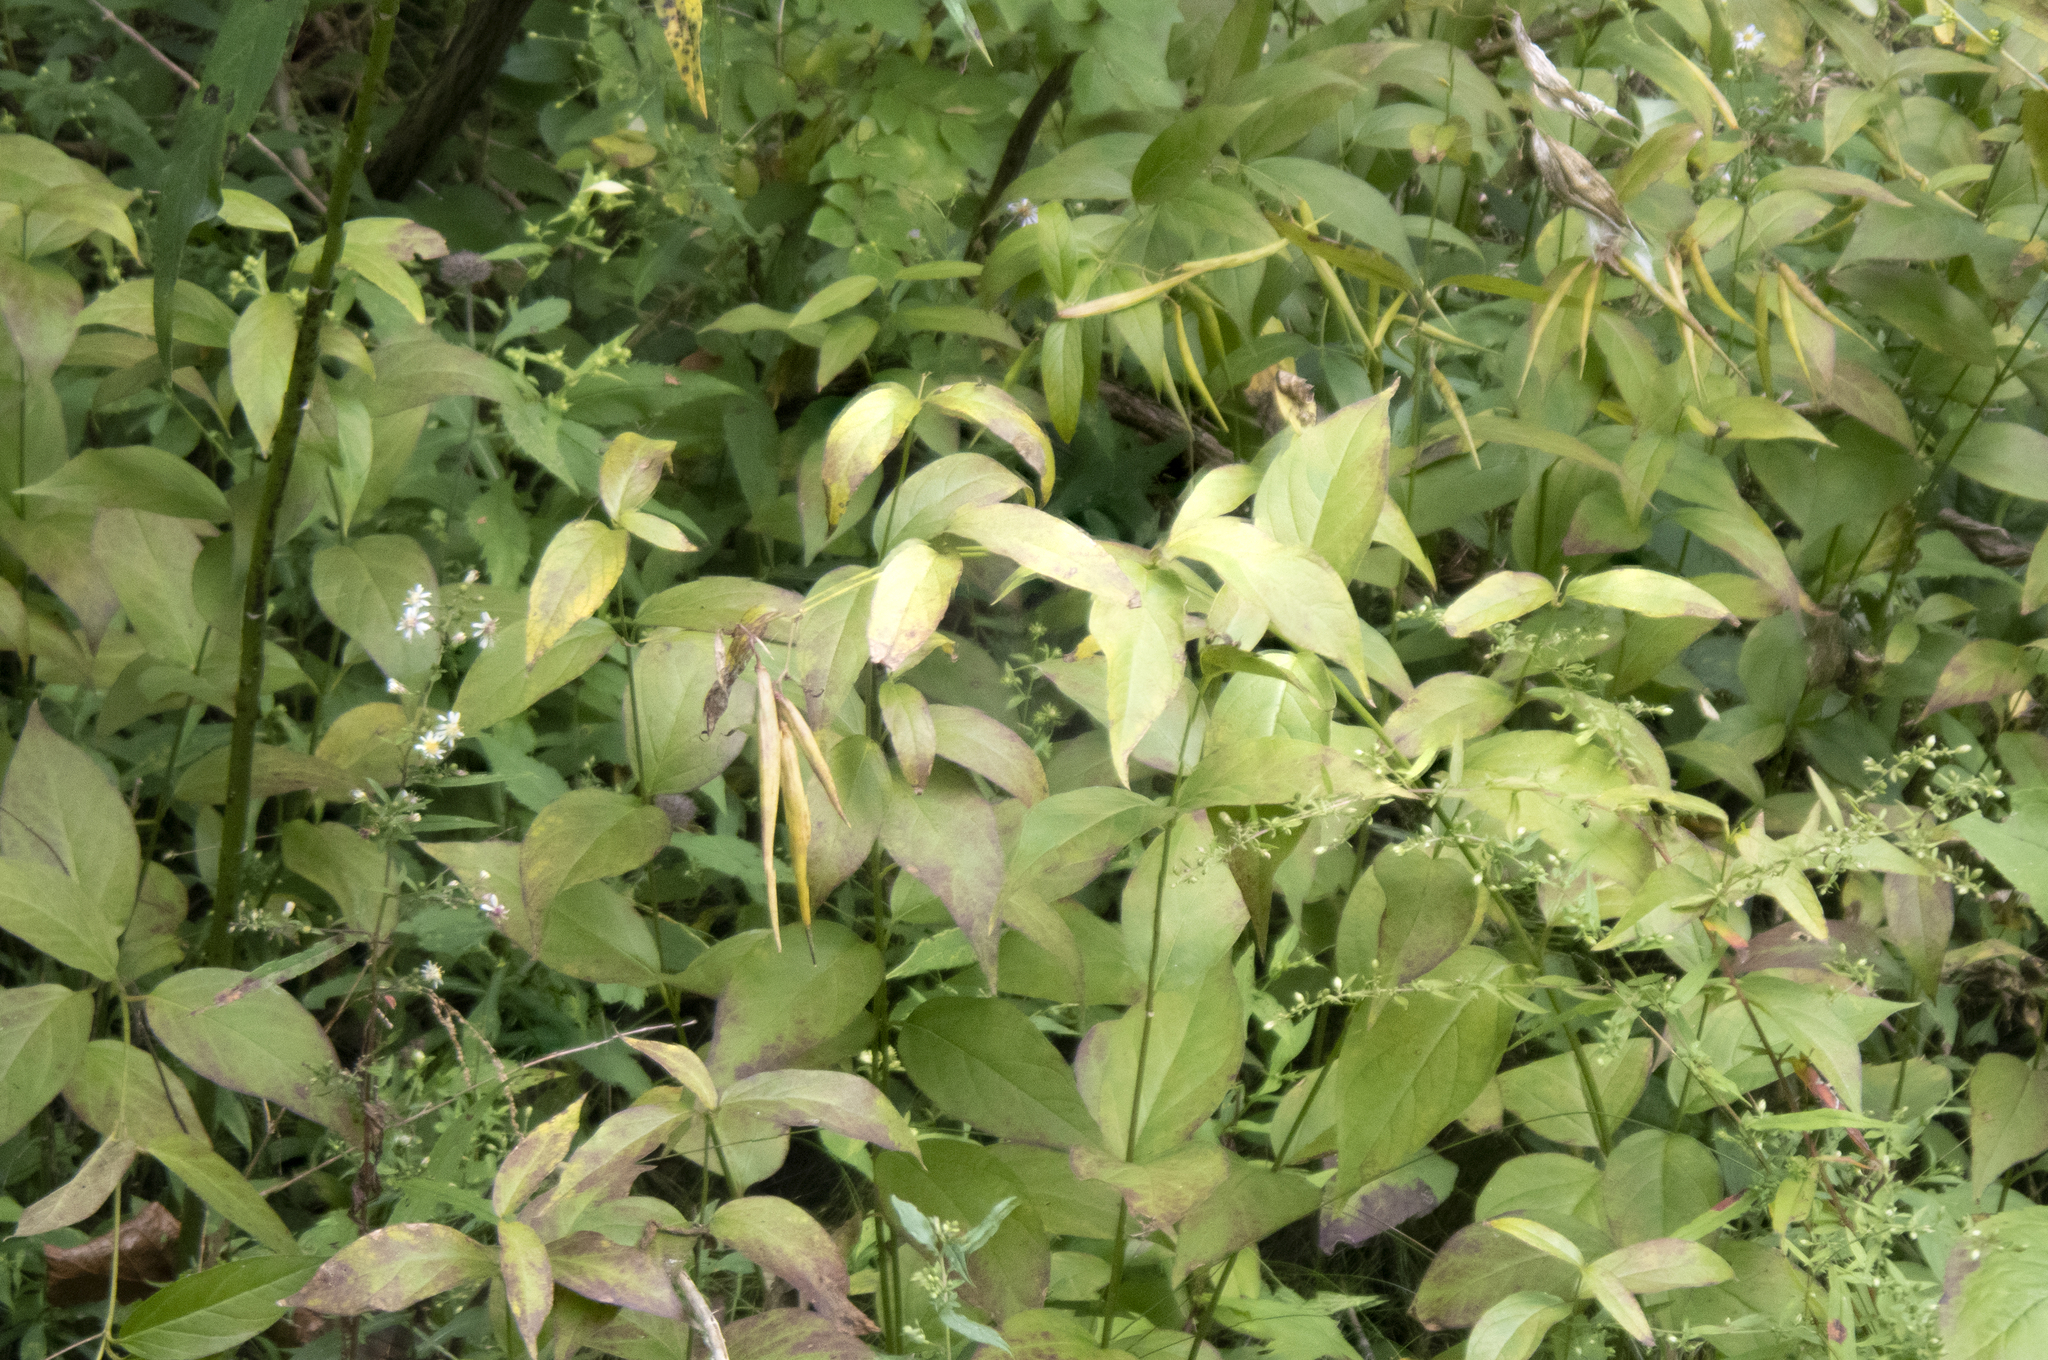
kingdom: Plantae
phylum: Tracheophyta
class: Magnoliopsida
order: Gentianales
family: Apocynaceae
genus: Vincetoxicum
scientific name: Vincetoxicum rossicum
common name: Dog-strangling vine
